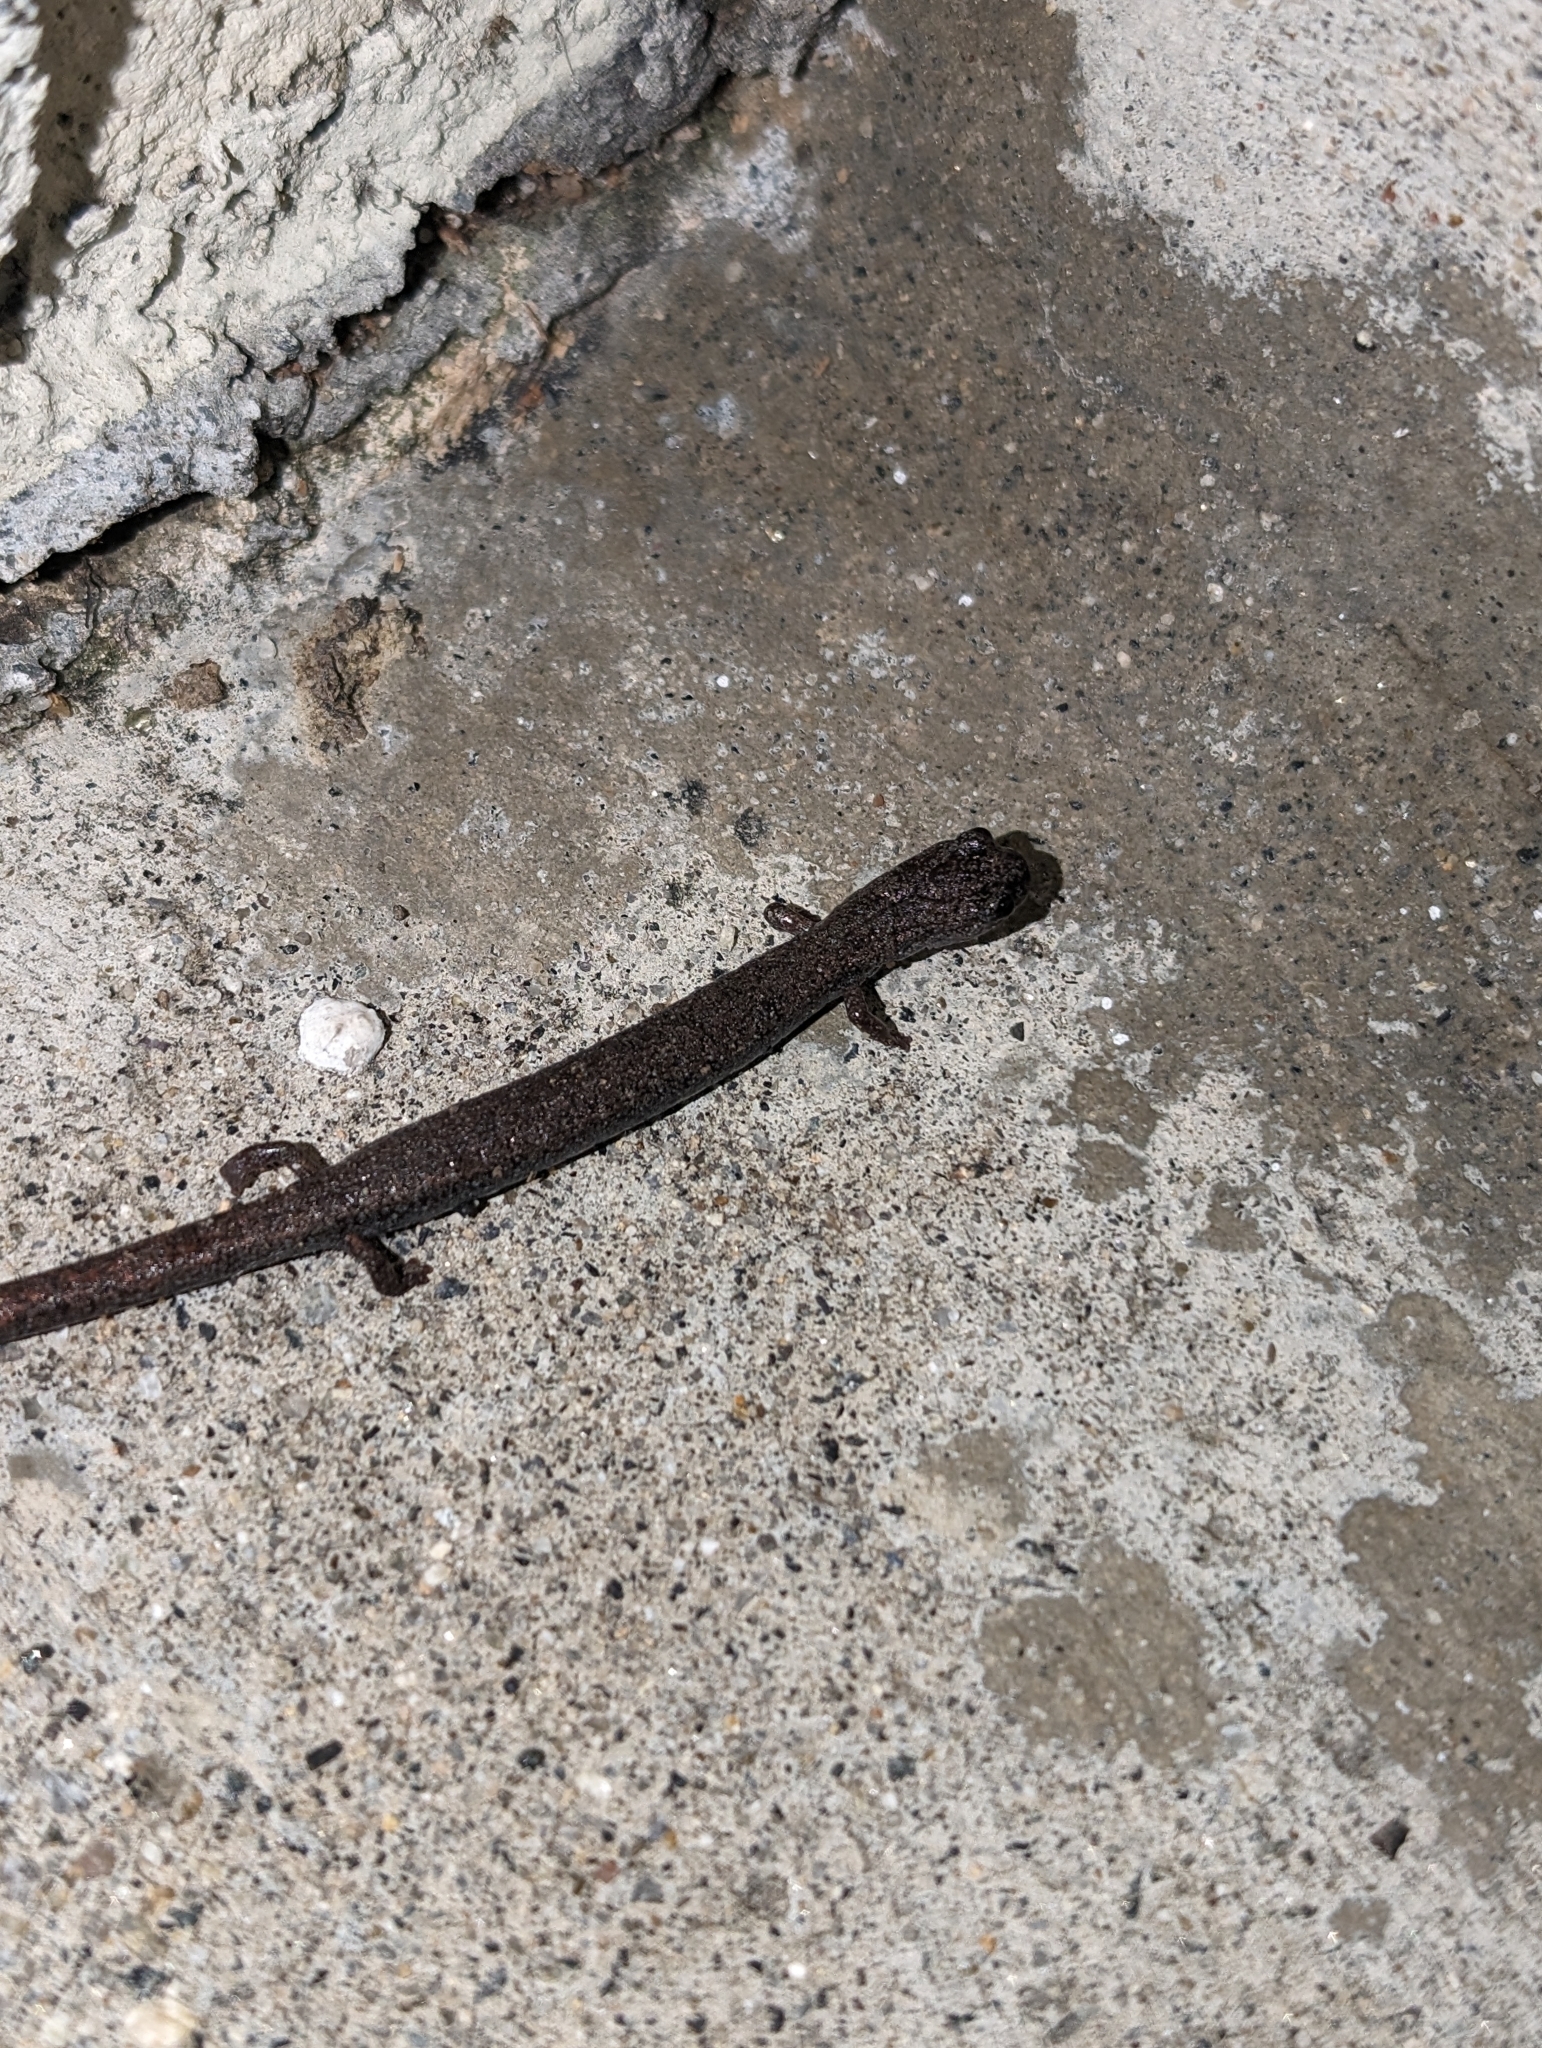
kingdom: Animalia
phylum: Chordata
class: Amphibia
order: Caudata
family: Plethodontidae
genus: Batrachoseps
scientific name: Batrachoseps major
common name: Garden slender salamander
